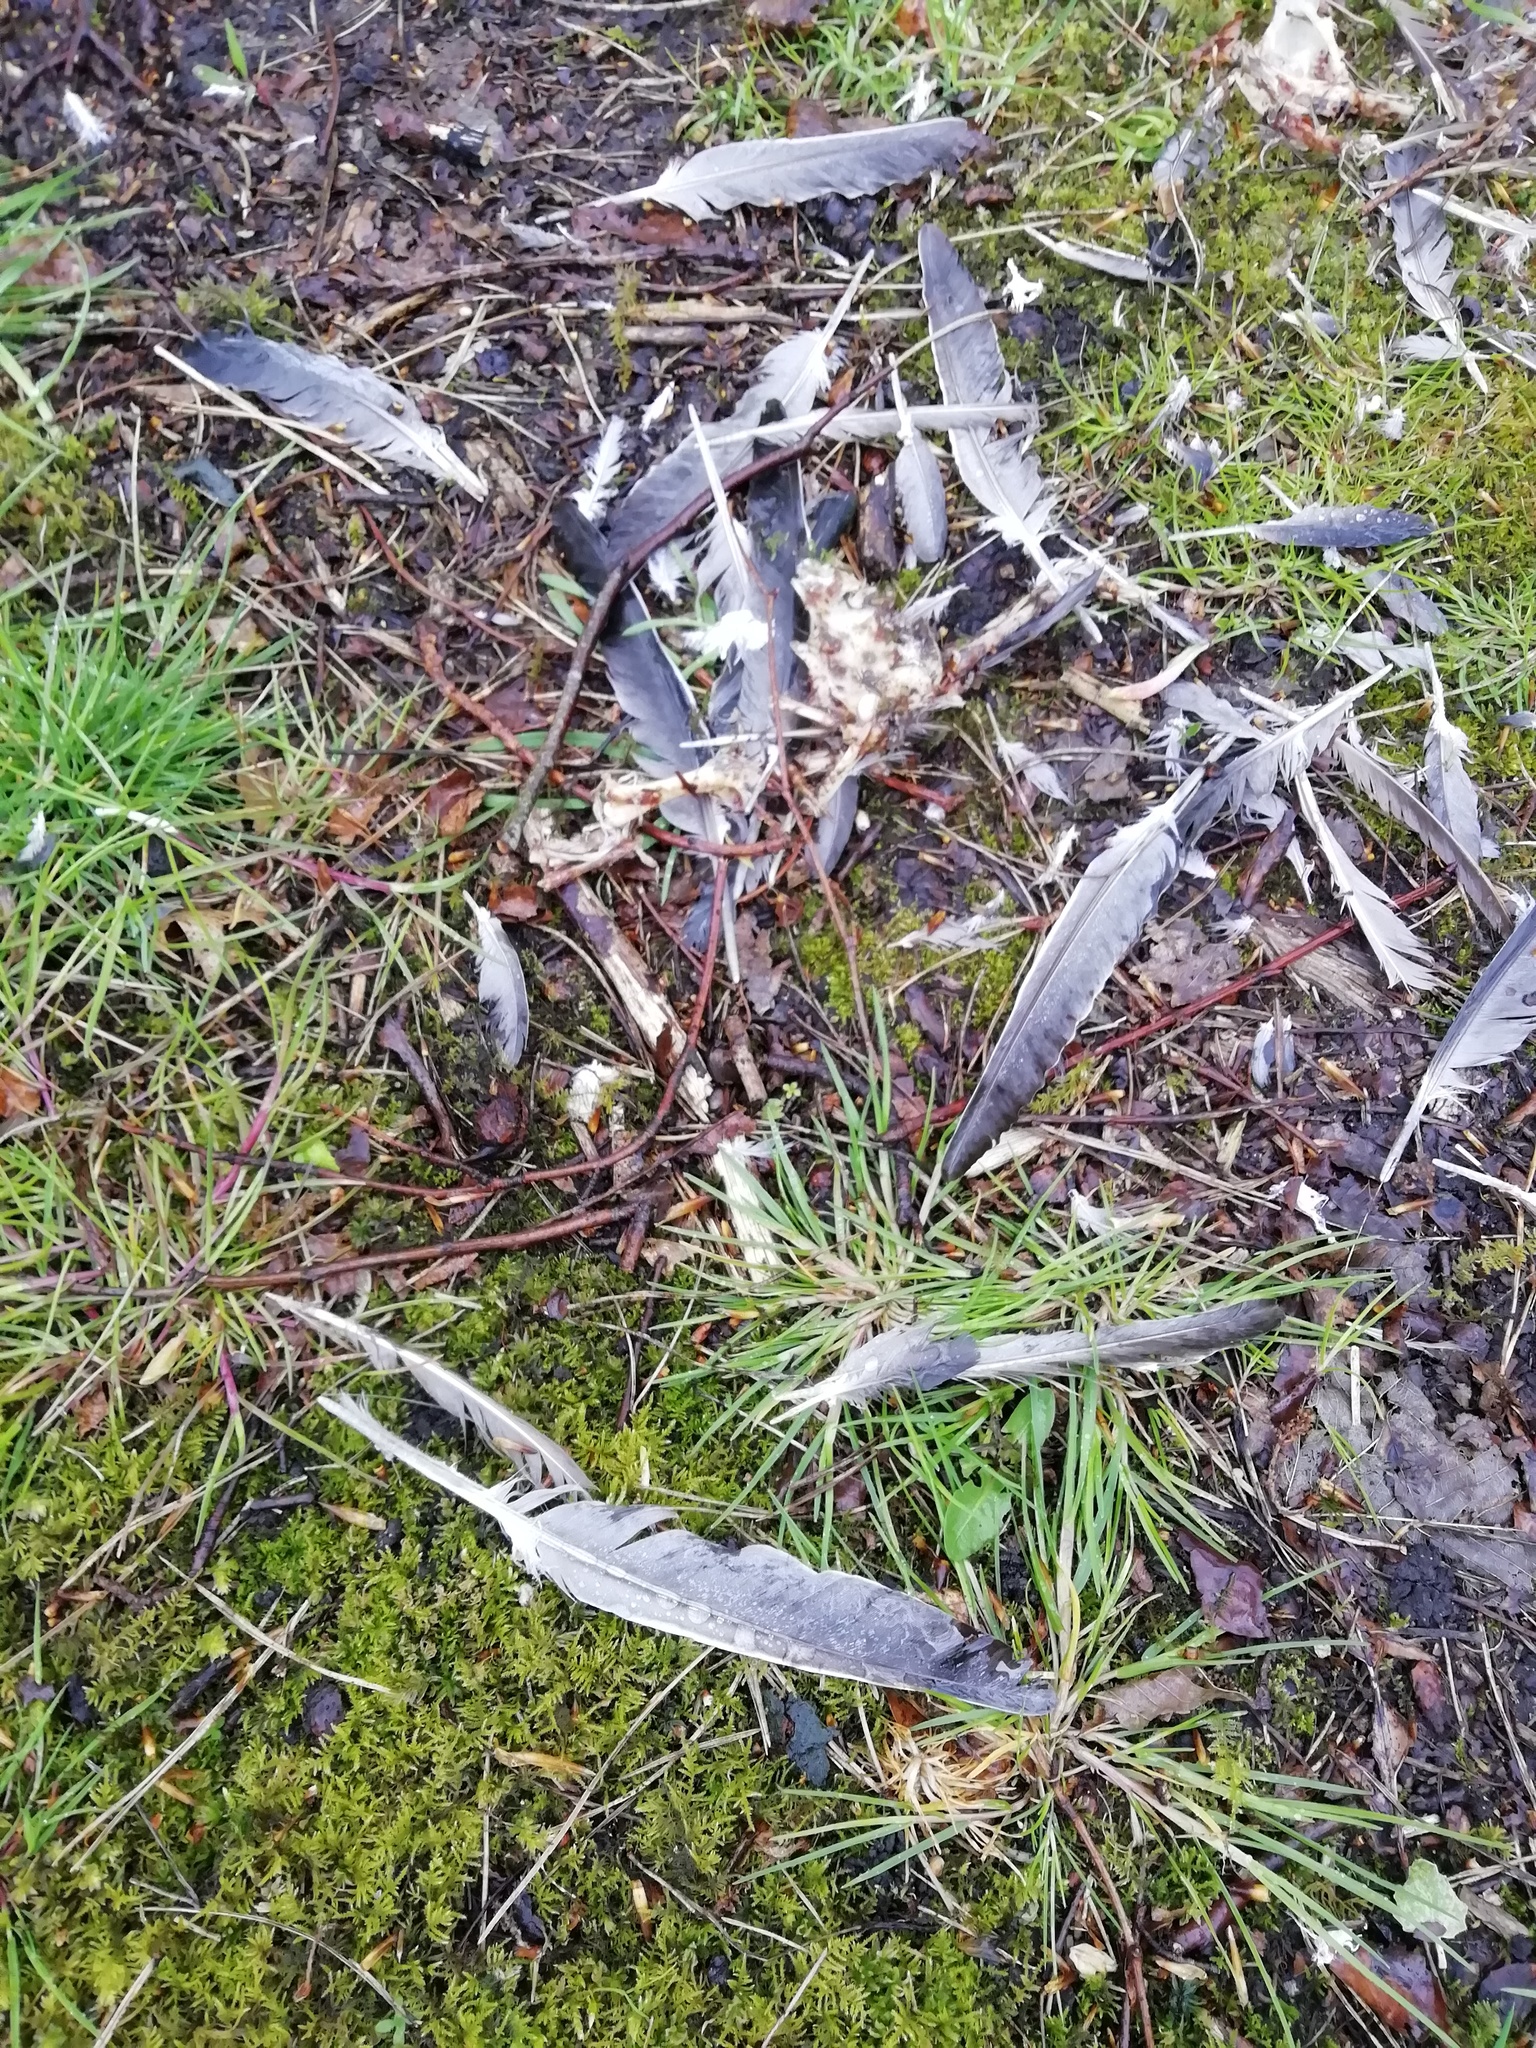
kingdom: Animalia
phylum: Chordata
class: Aves
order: Columbiformes
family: Columbidae
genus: Columba
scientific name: Columba palumbus
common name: Common wood pigeon
